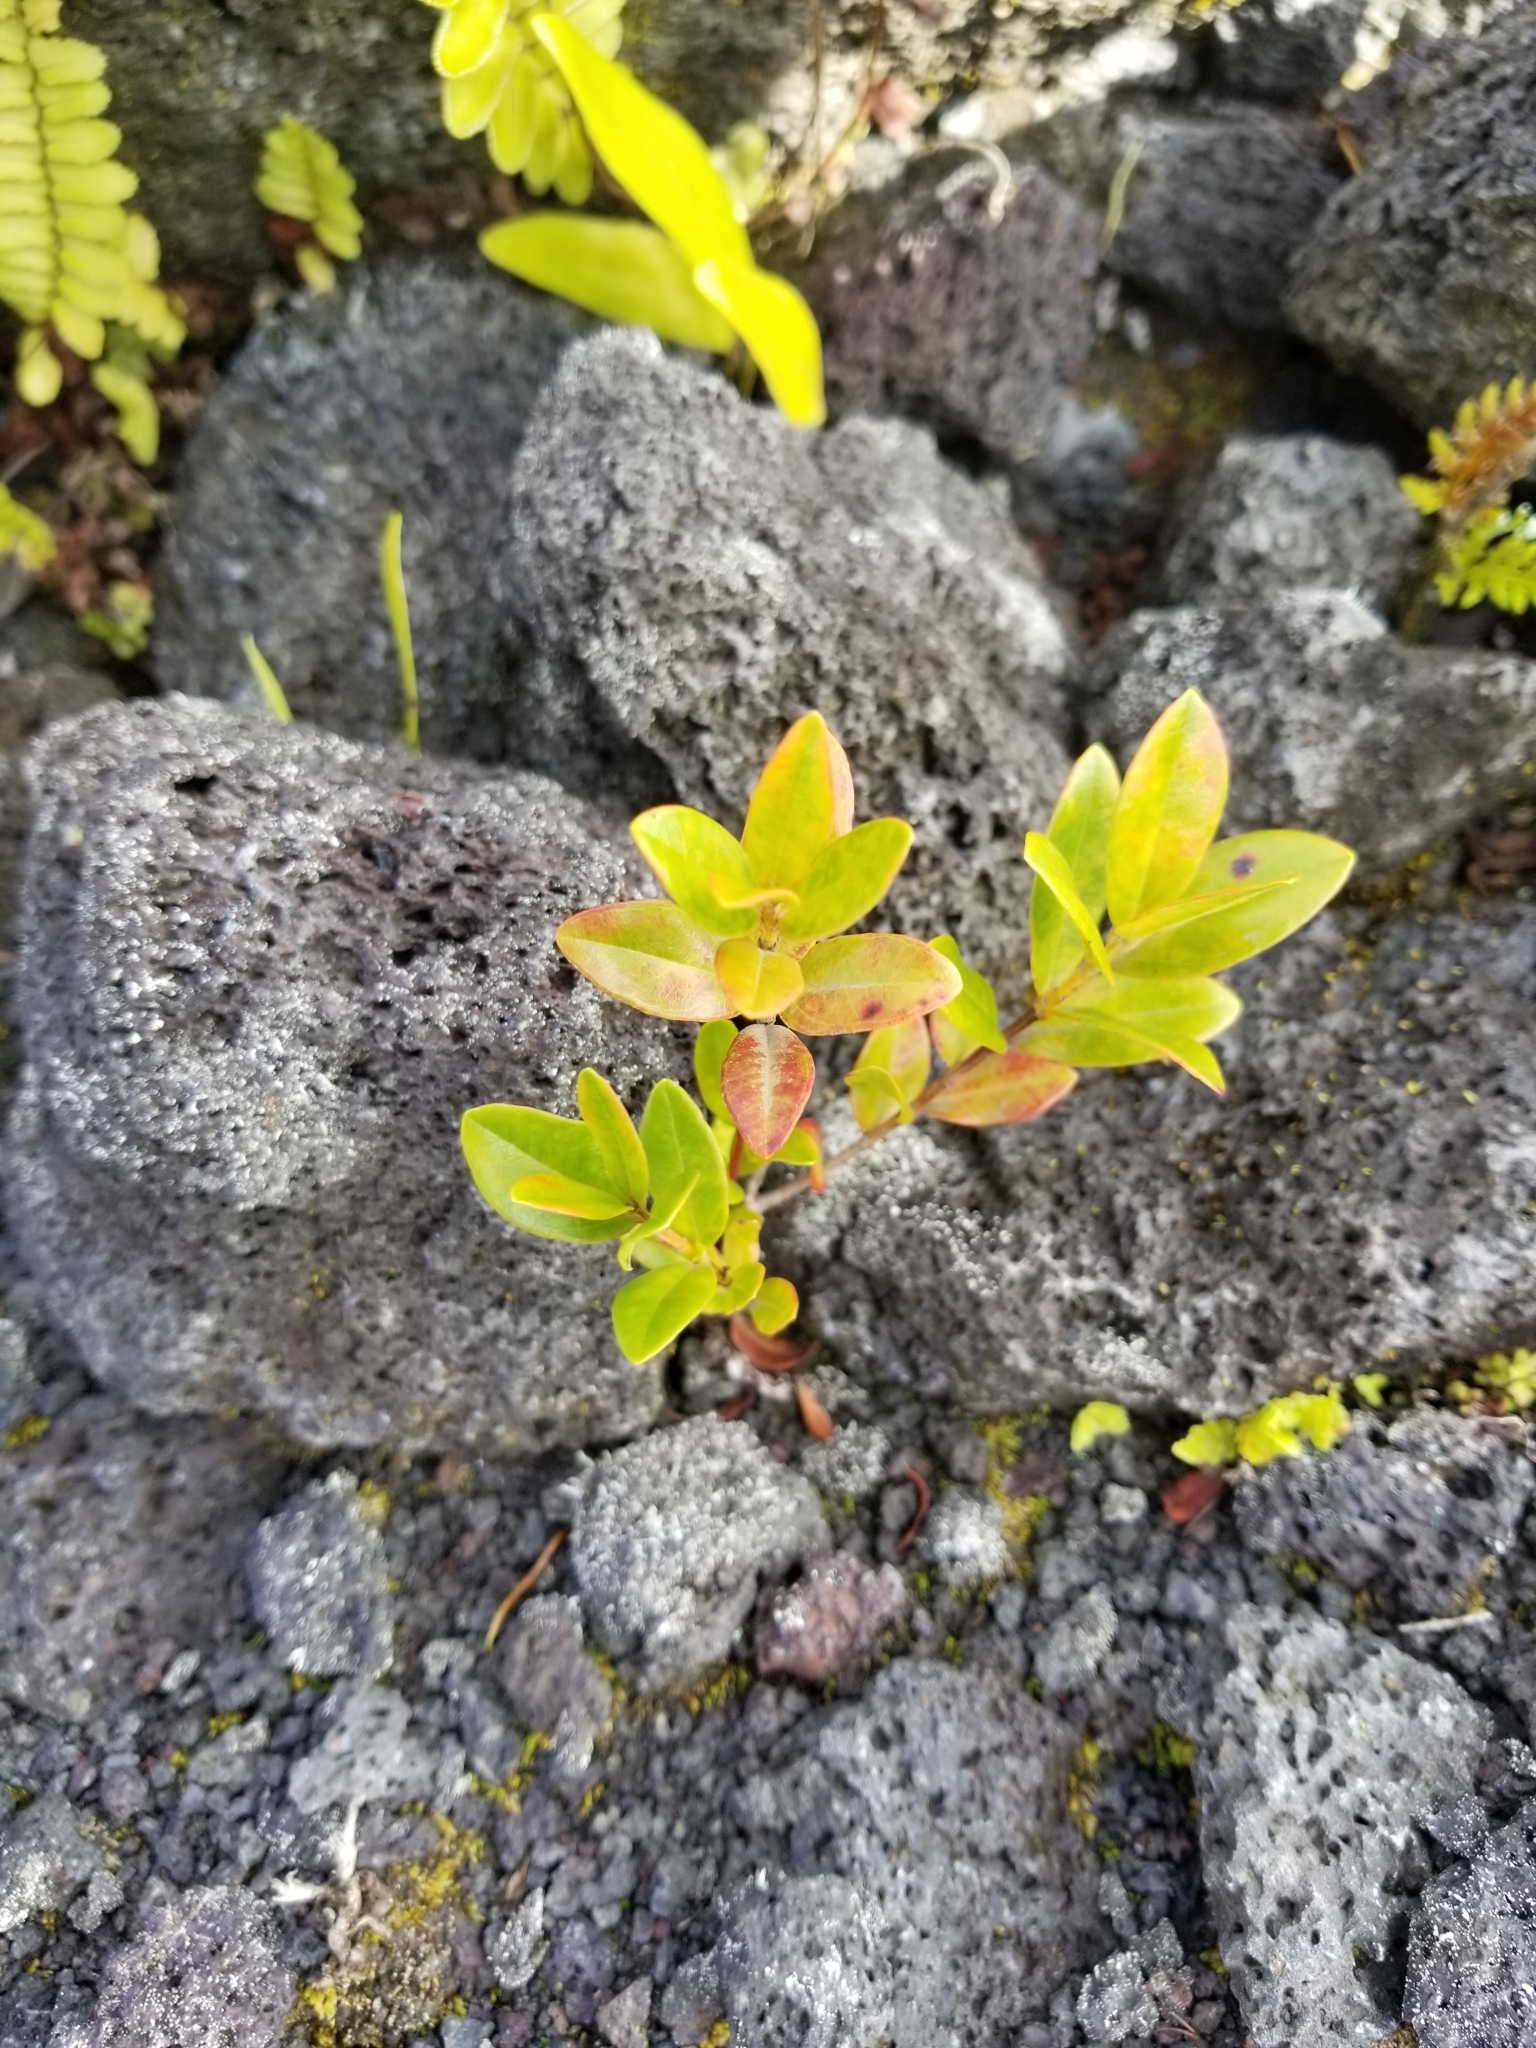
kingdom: Plantae
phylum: Tracheophyta
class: Magnoliopsida
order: Myrtales
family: Myrtaceae
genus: Metrosideros
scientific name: Metrosideros polymorpha
